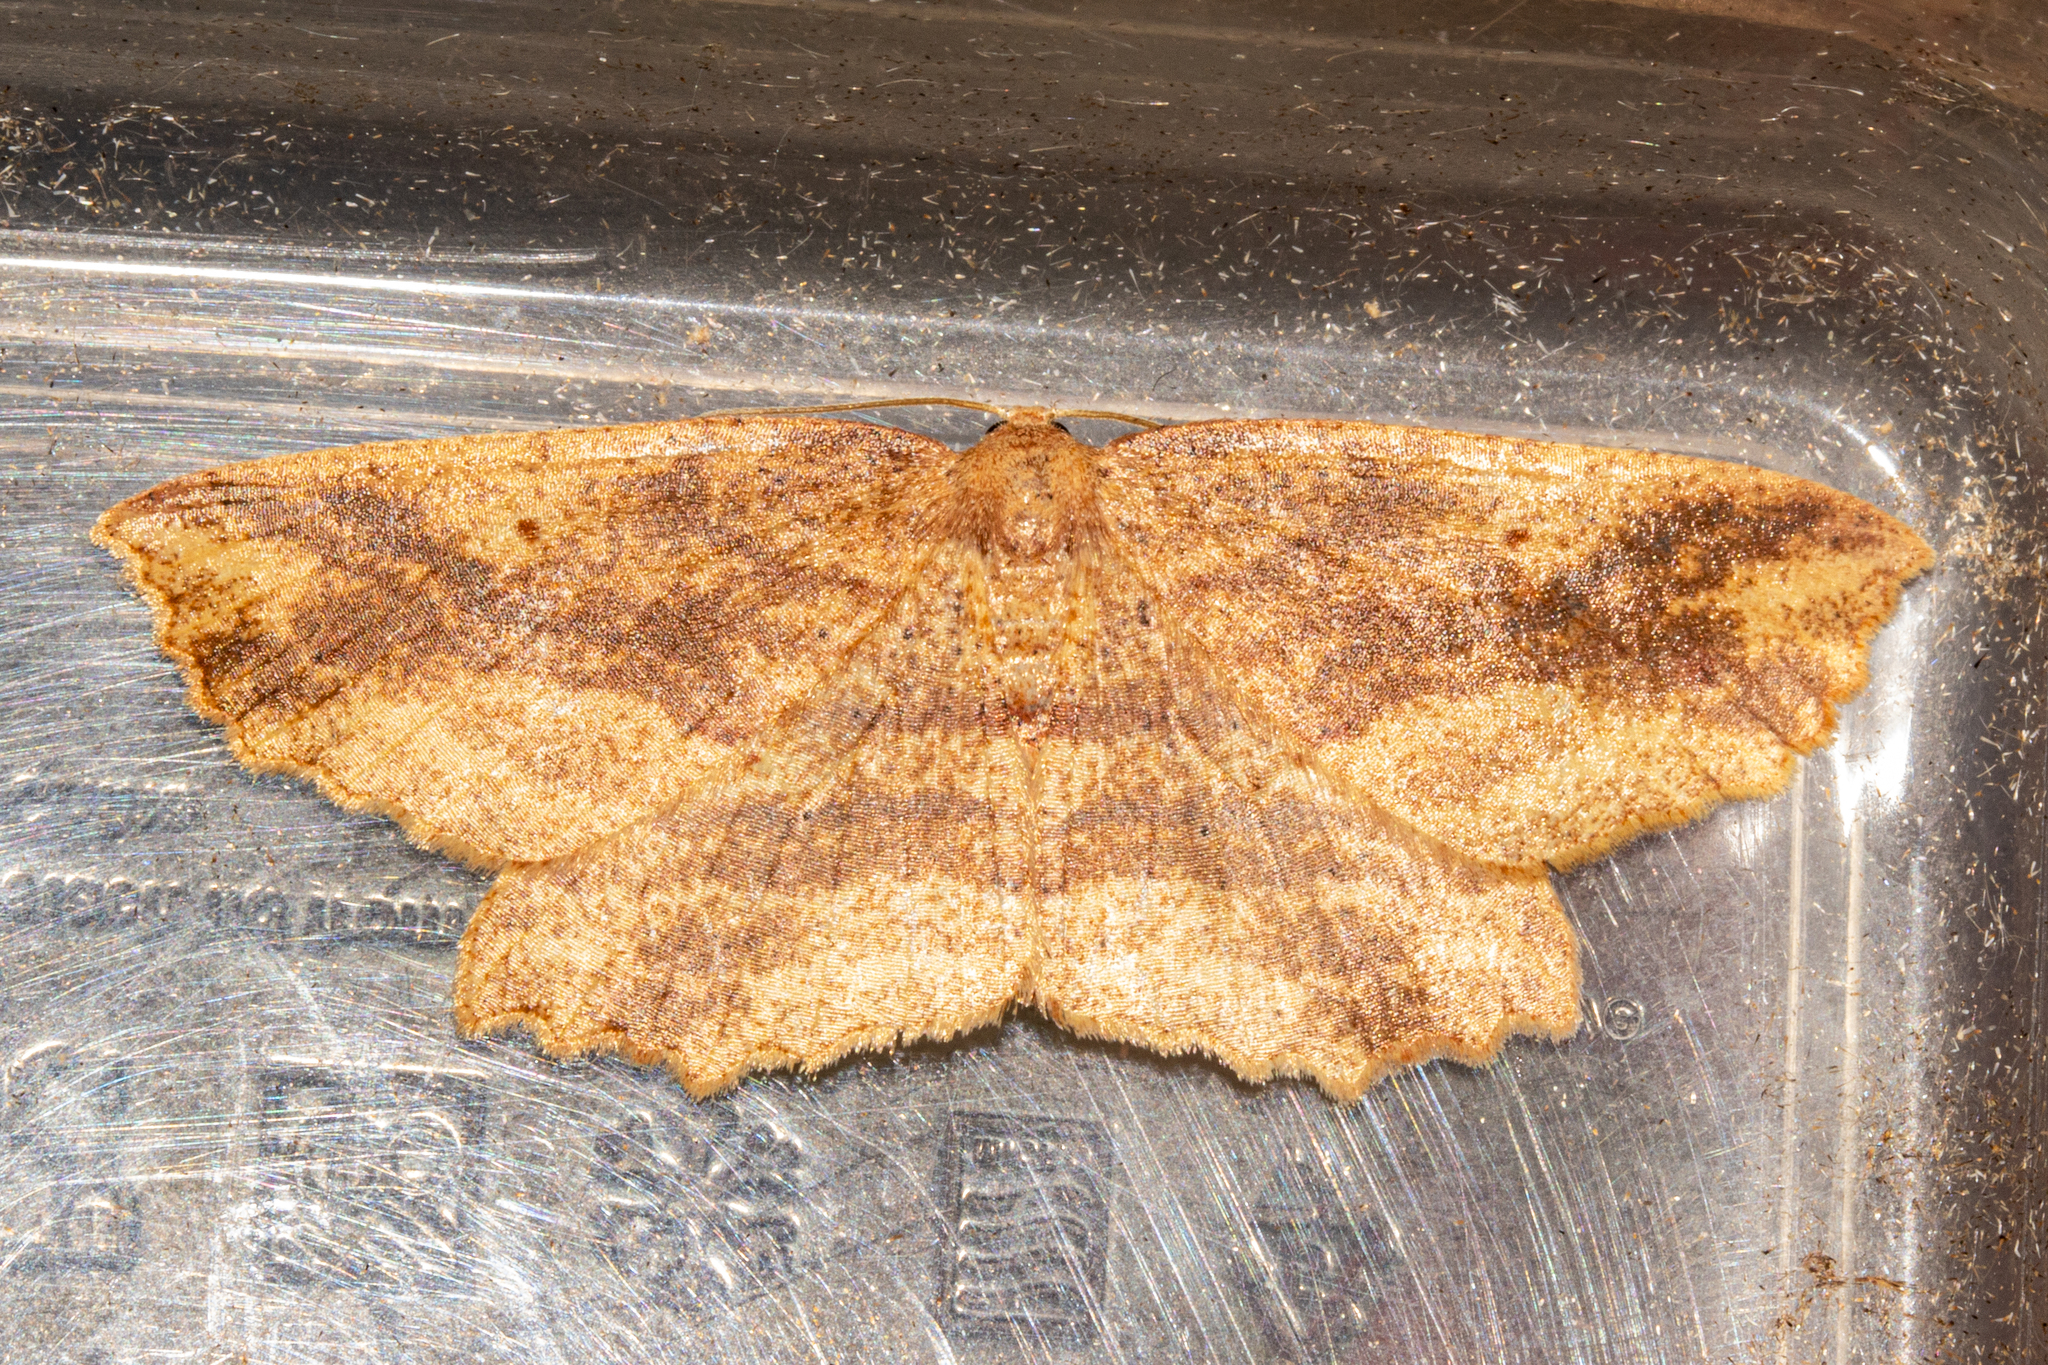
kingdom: Animalia
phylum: Arthropoda
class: Insecta
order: Lepidoptera
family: Geometridae
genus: Xyridacma
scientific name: Xyridacma veronicae
